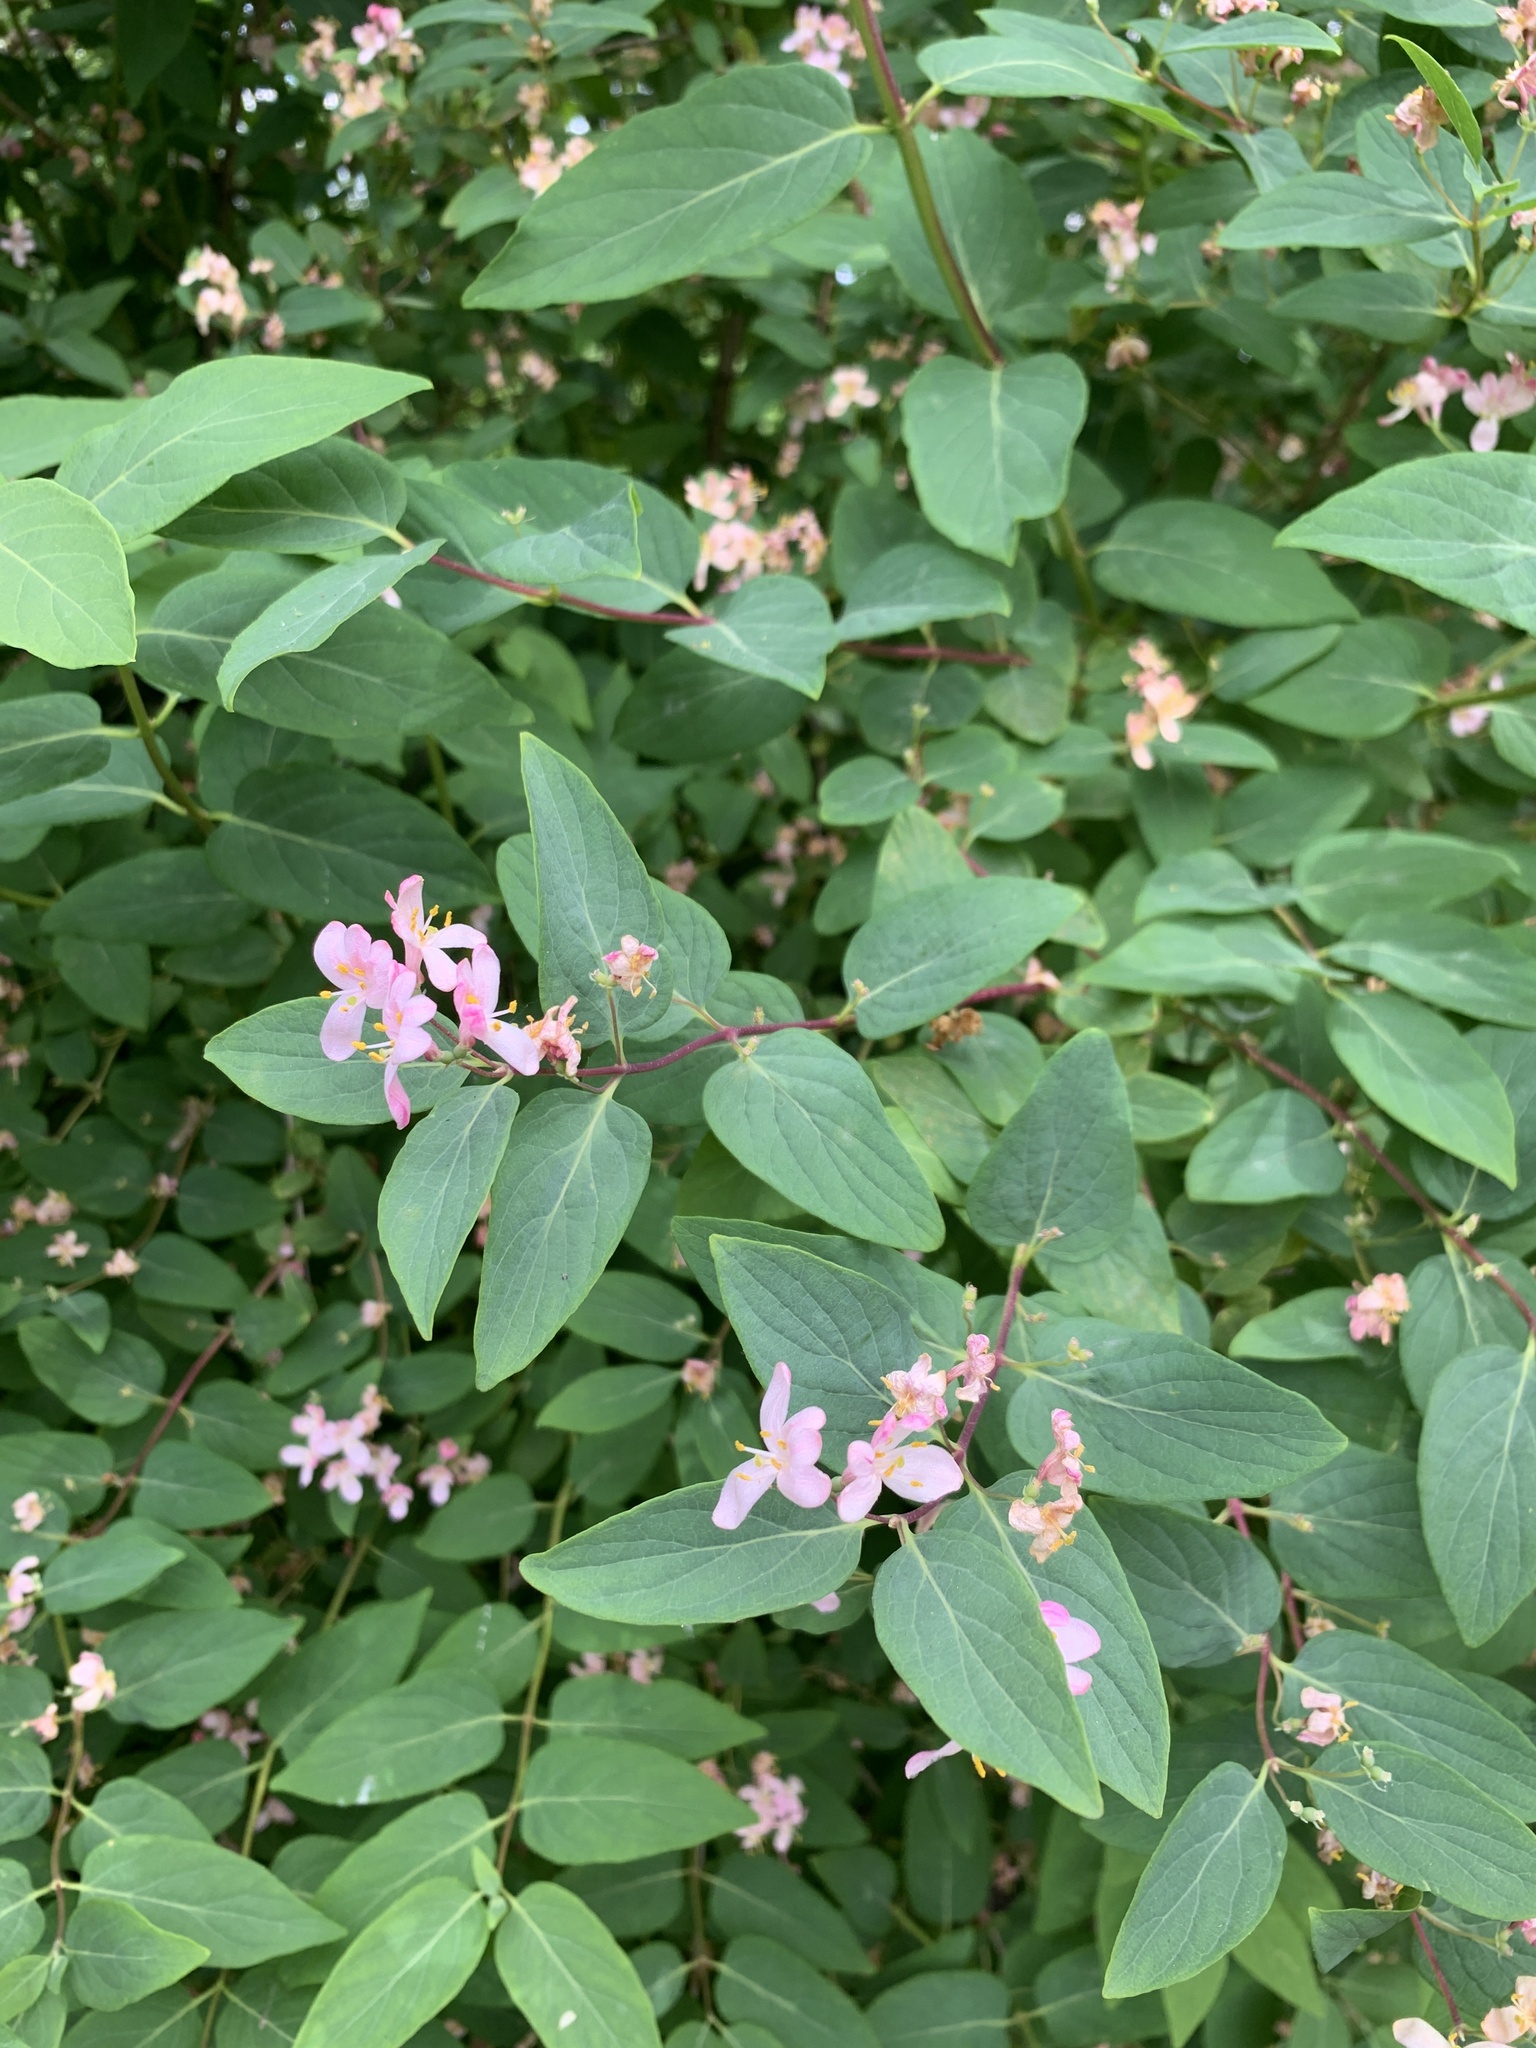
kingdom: Plantae
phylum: Tracheophyta
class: Magnoliopsida
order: Dipsacales
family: Caprifoliaceae
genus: Lonicera
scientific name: Lonicera tatarica
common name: Tatarian honeysuckle
